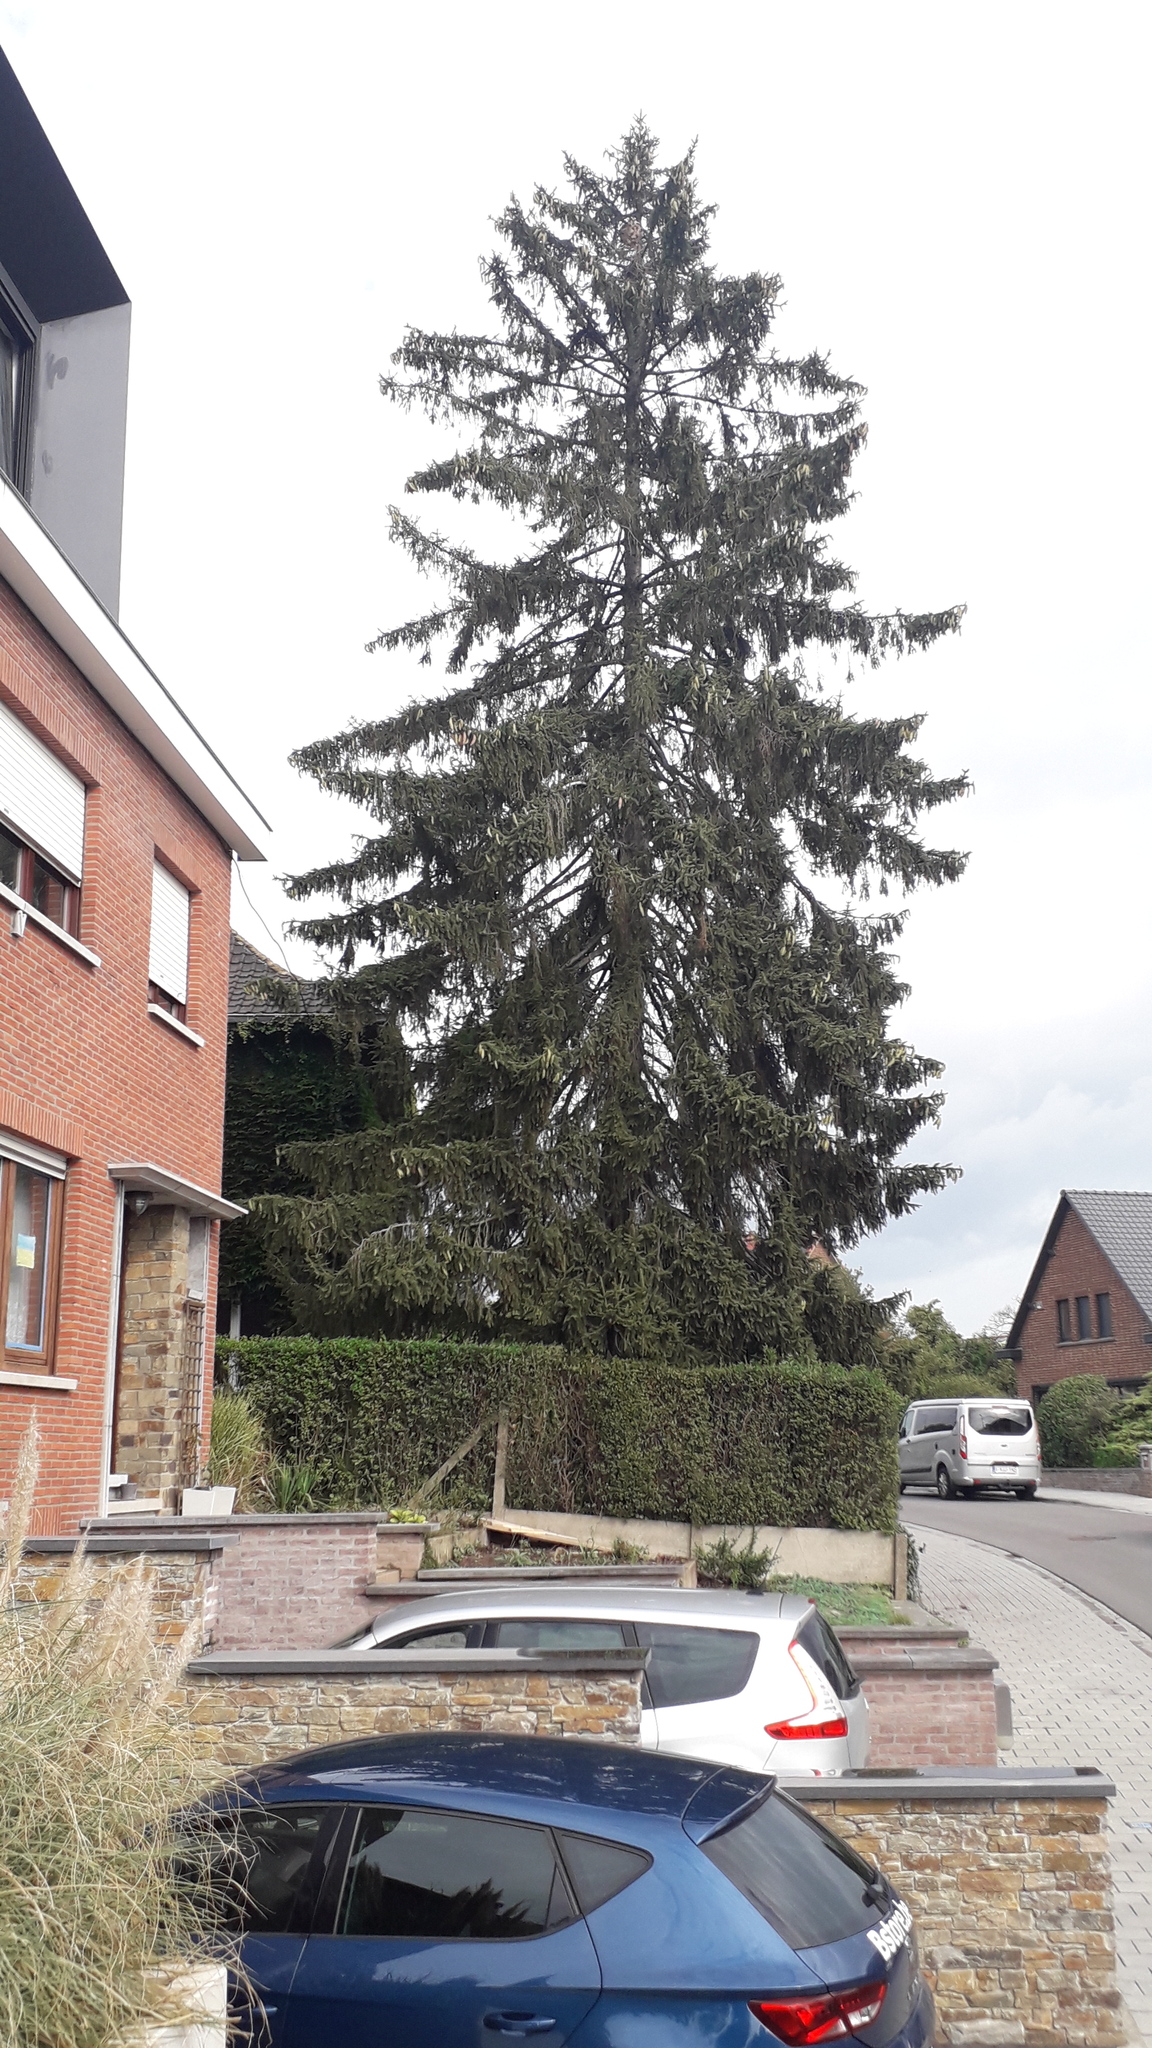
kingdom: Animalia
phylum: Arthropoda
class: Insecta
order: Hymenoptera
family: Vespidae
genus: Vespa
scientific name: Vespa velutina
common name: Asian hornet
